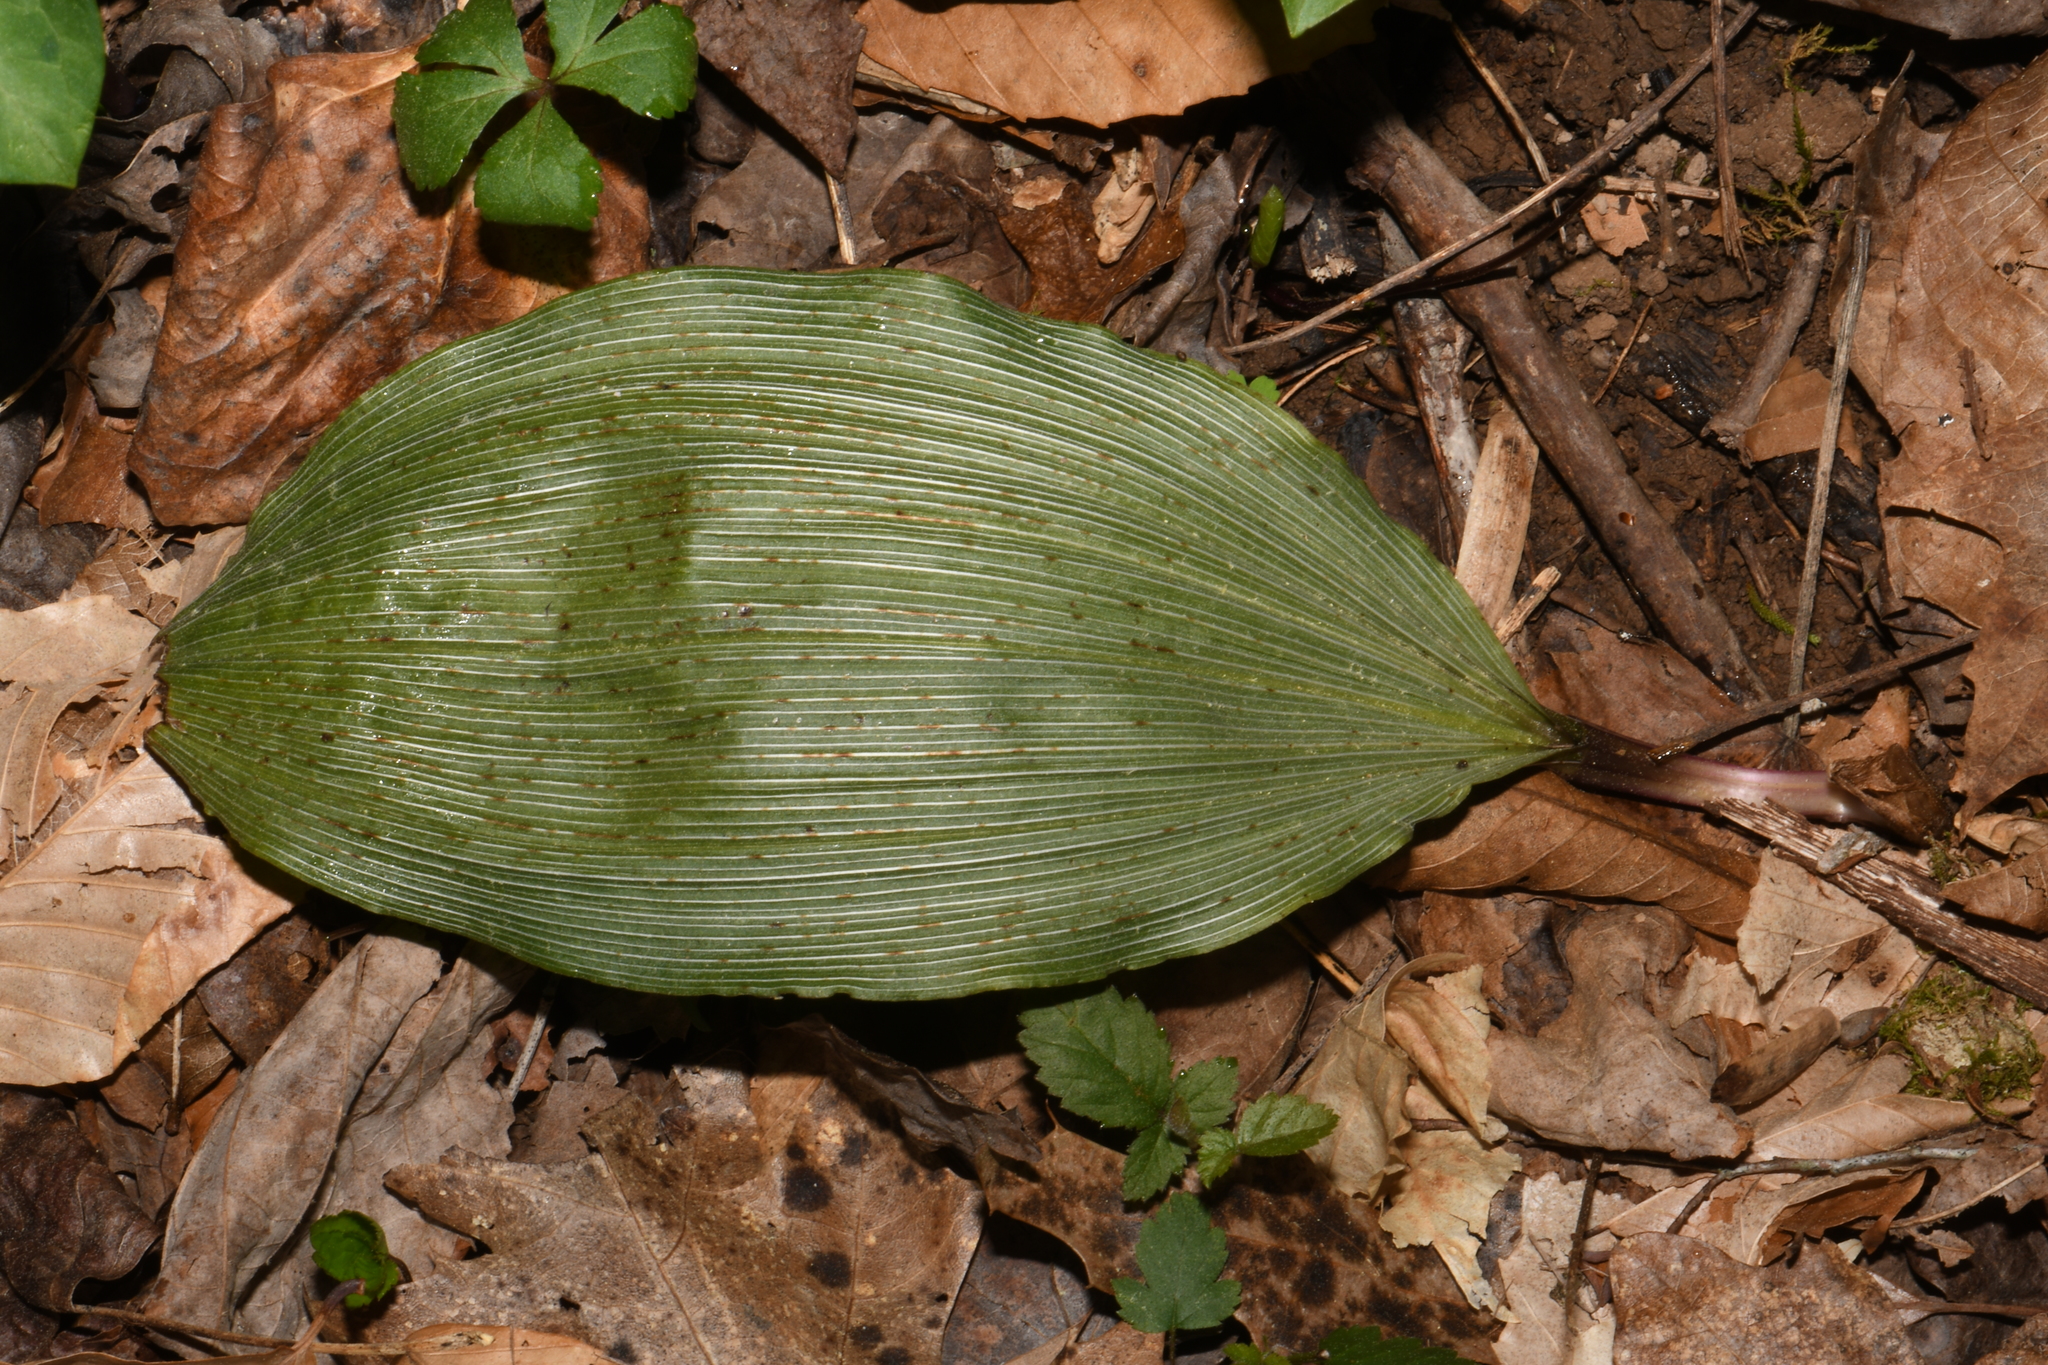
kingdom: Plantae
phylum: Tracheophyta
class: Liliopsida
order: Asparagales
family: Orchidaceae
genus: Aplectrum
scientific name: Aplectrum hyemale
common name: Adam-and-eve
